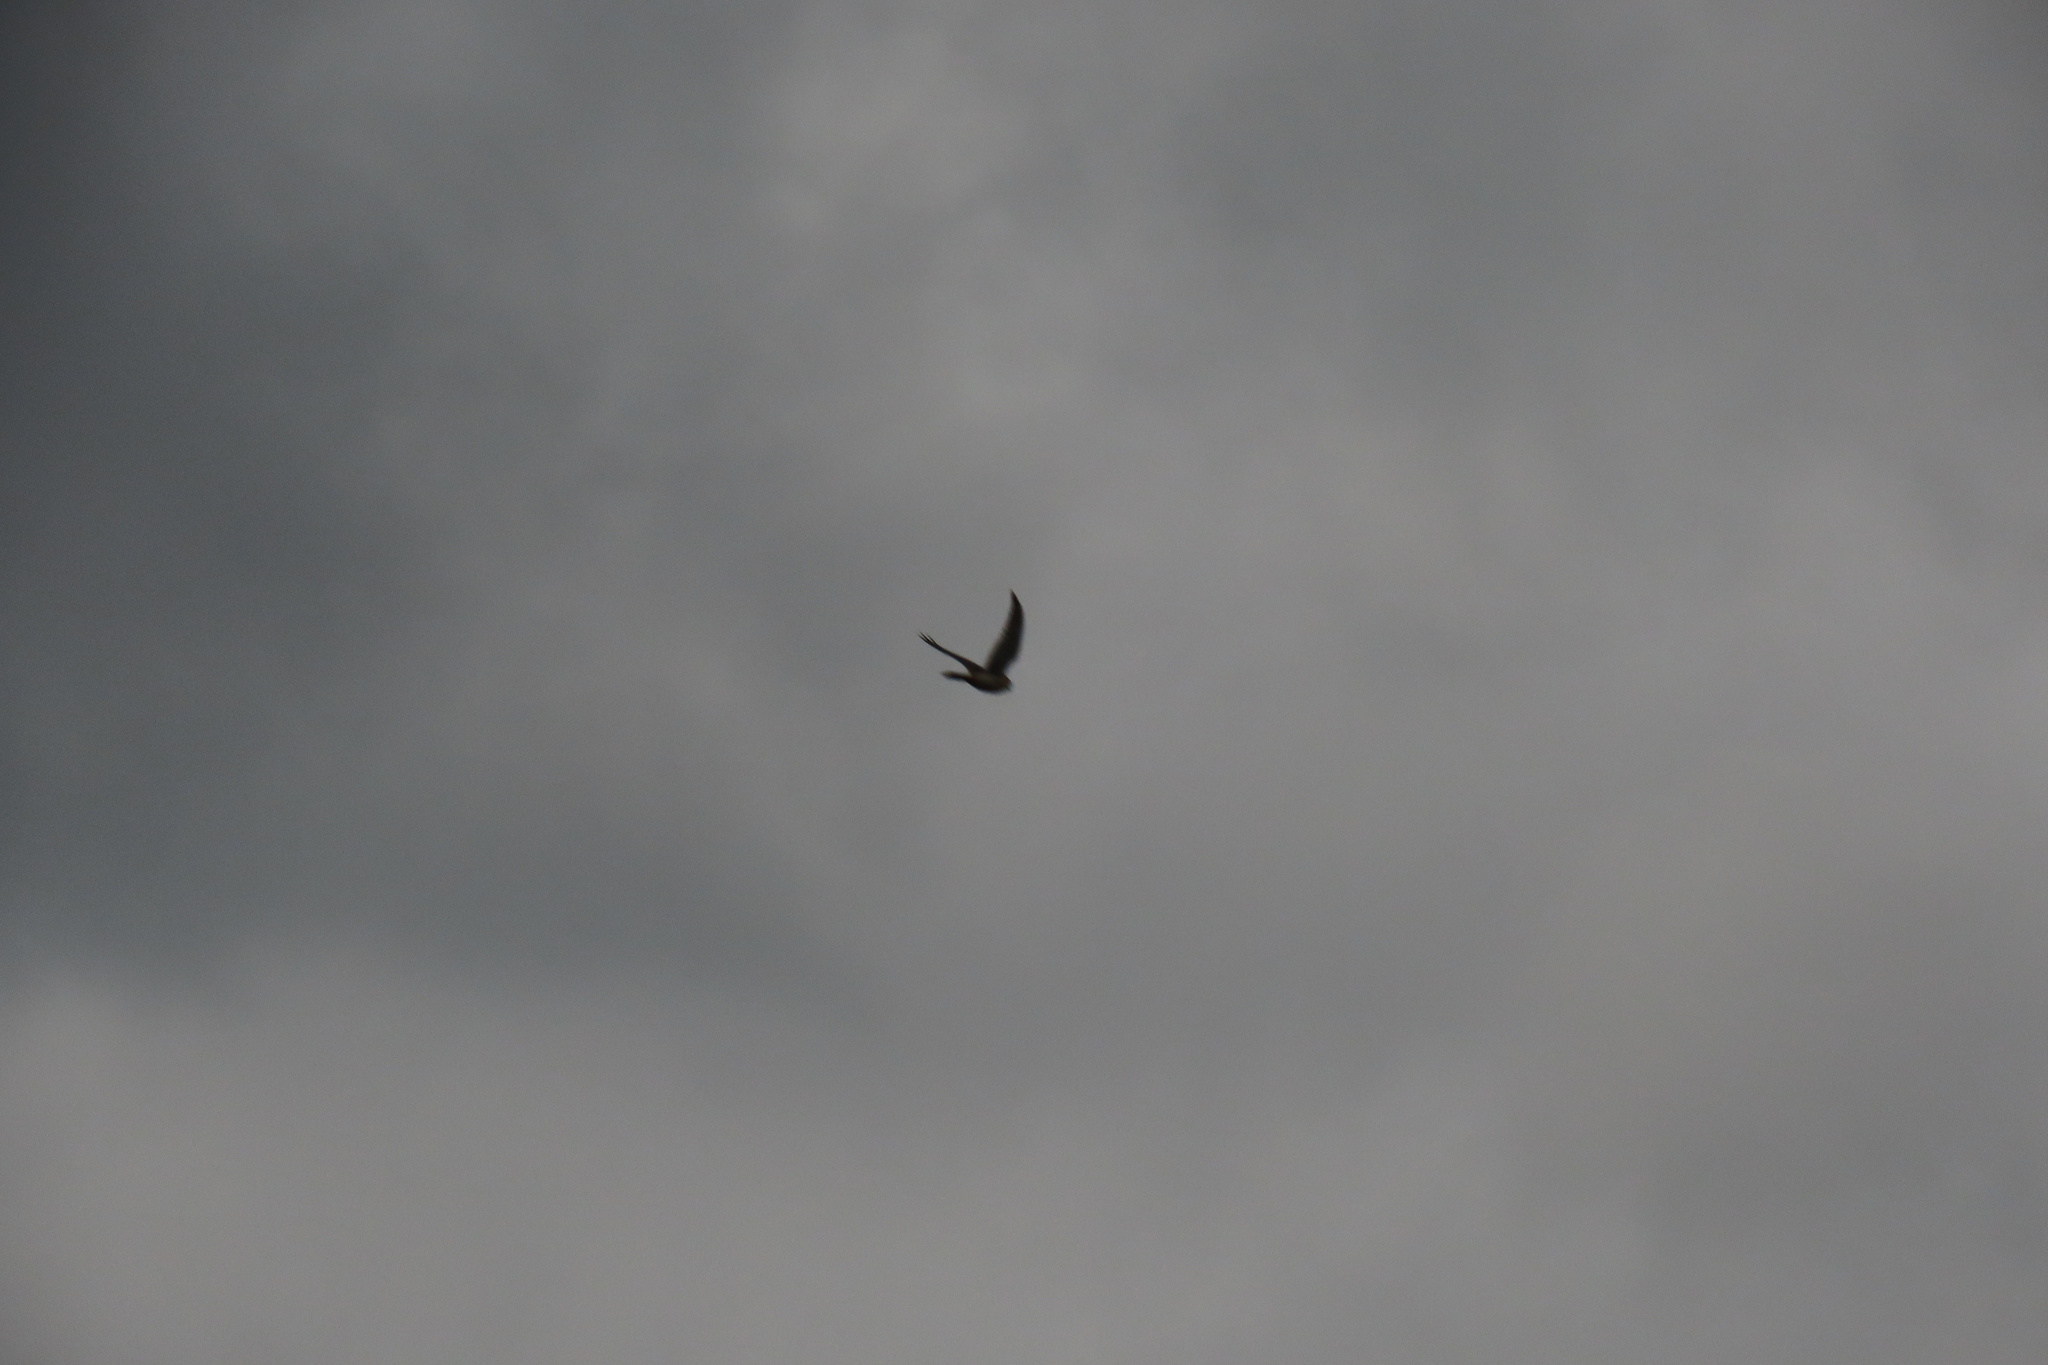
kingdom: Animalia
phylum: Chordata
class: Aves
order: Falconiformes
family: Falconidae
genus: Falco
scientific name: Falco sparverius
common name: American kestrel
